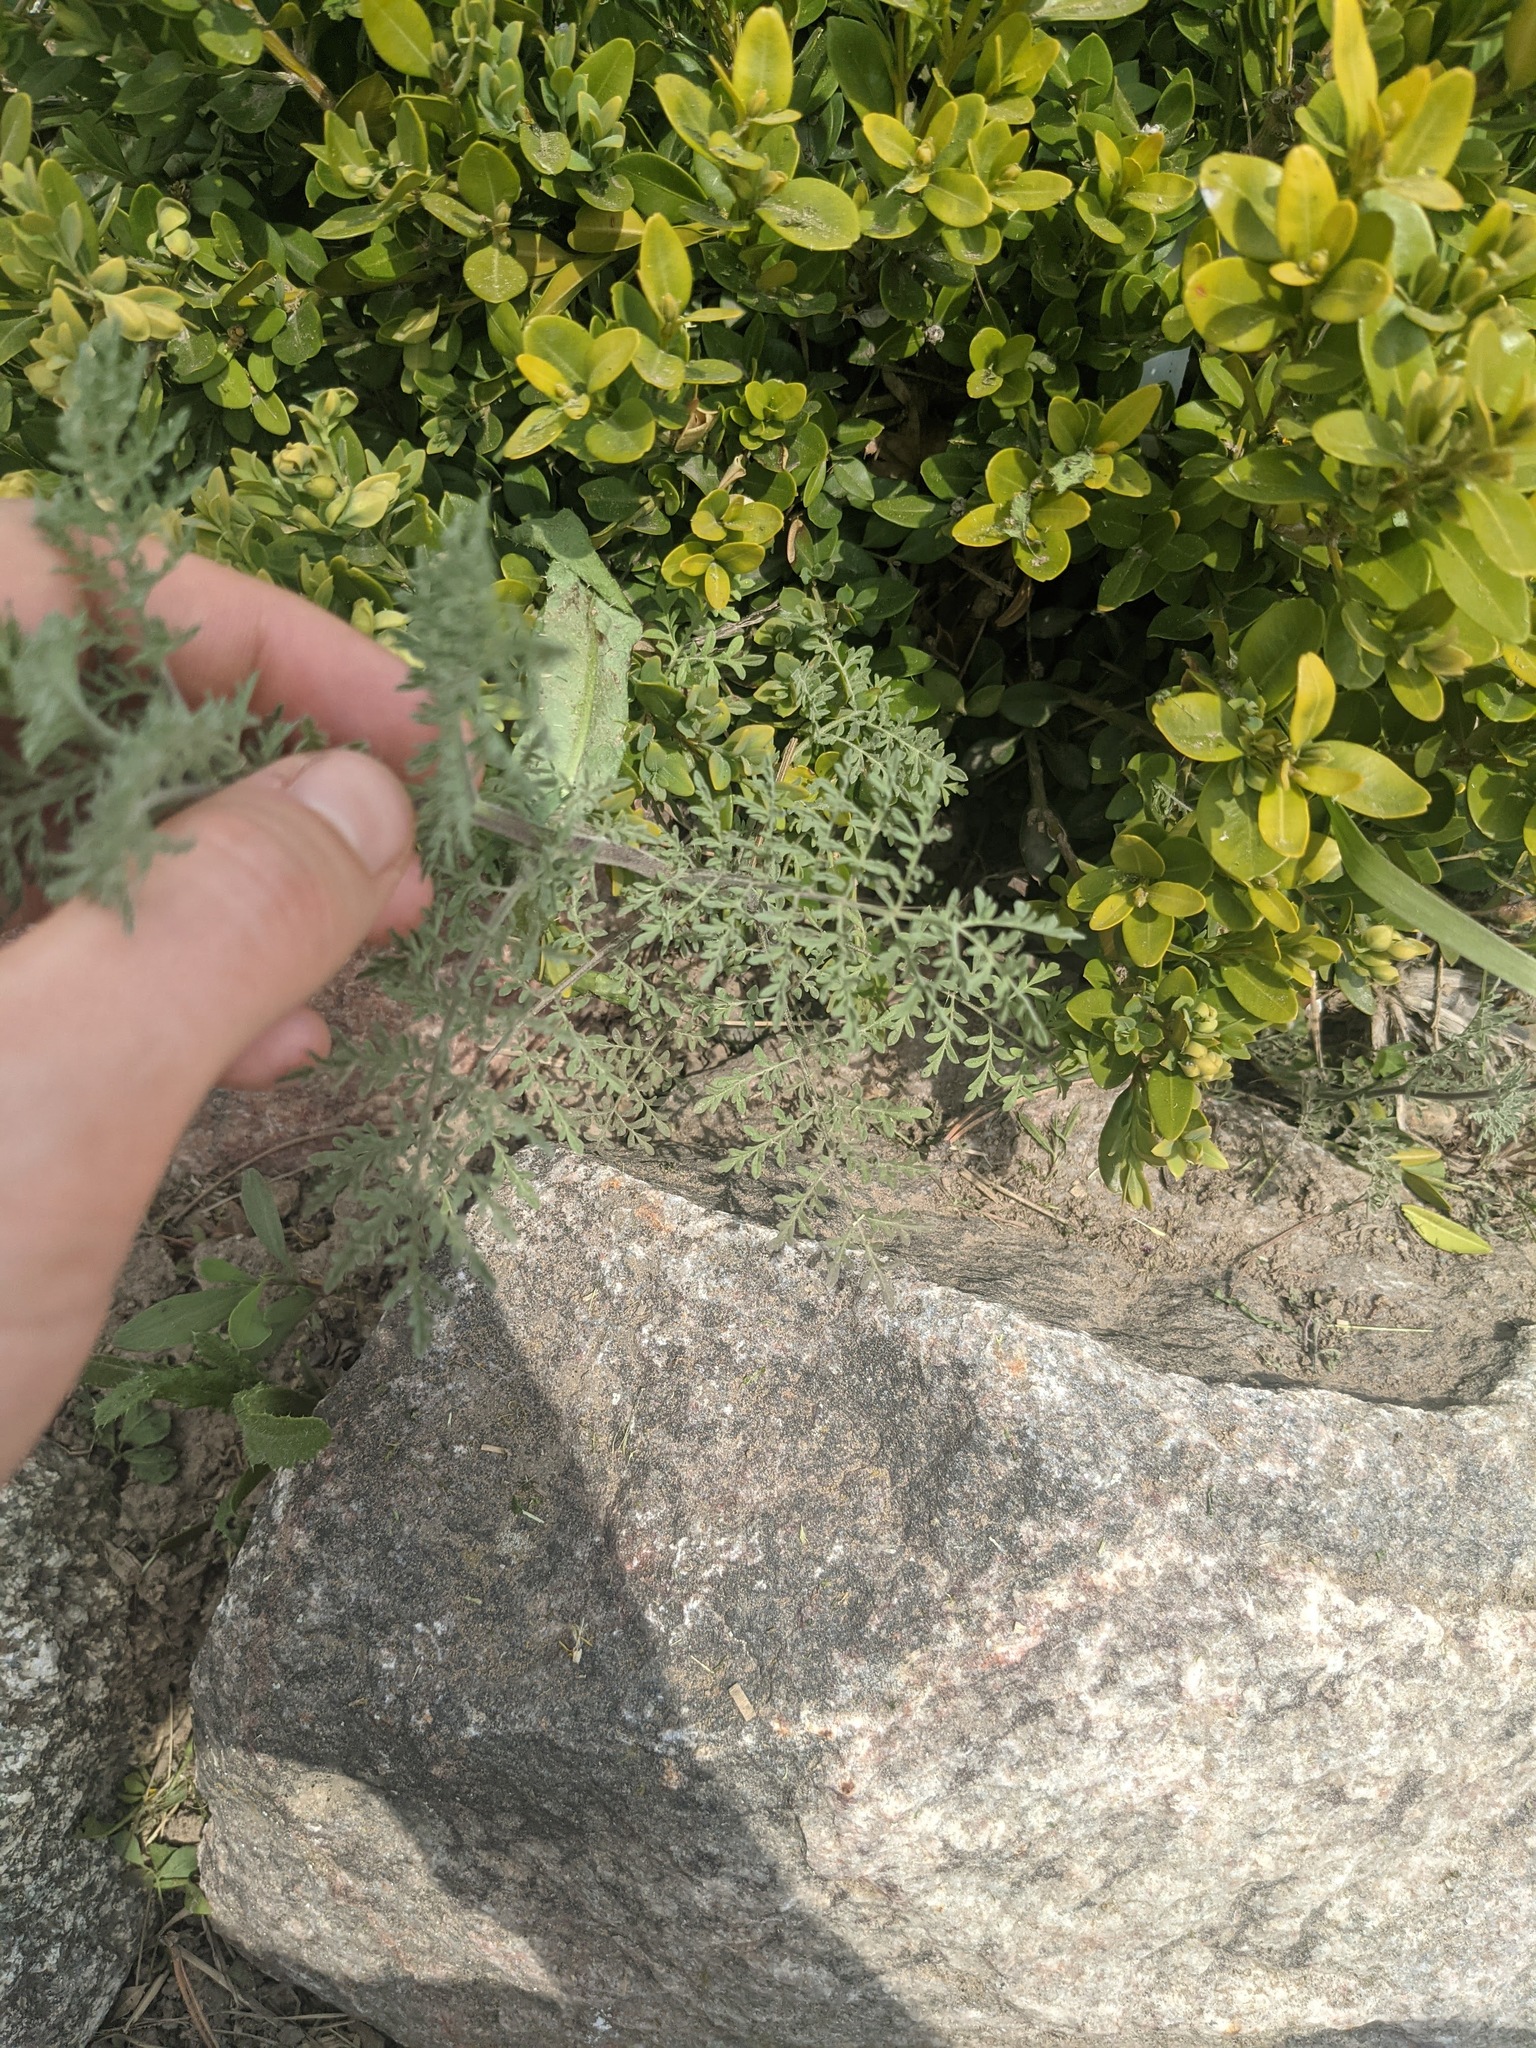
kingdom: Plantae
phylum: Tracheophyta
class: Magnoliopsida
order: Brassicales
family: Brassicaceae
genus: Descurainia
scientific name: Descurainia sophia
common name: Flixweed
